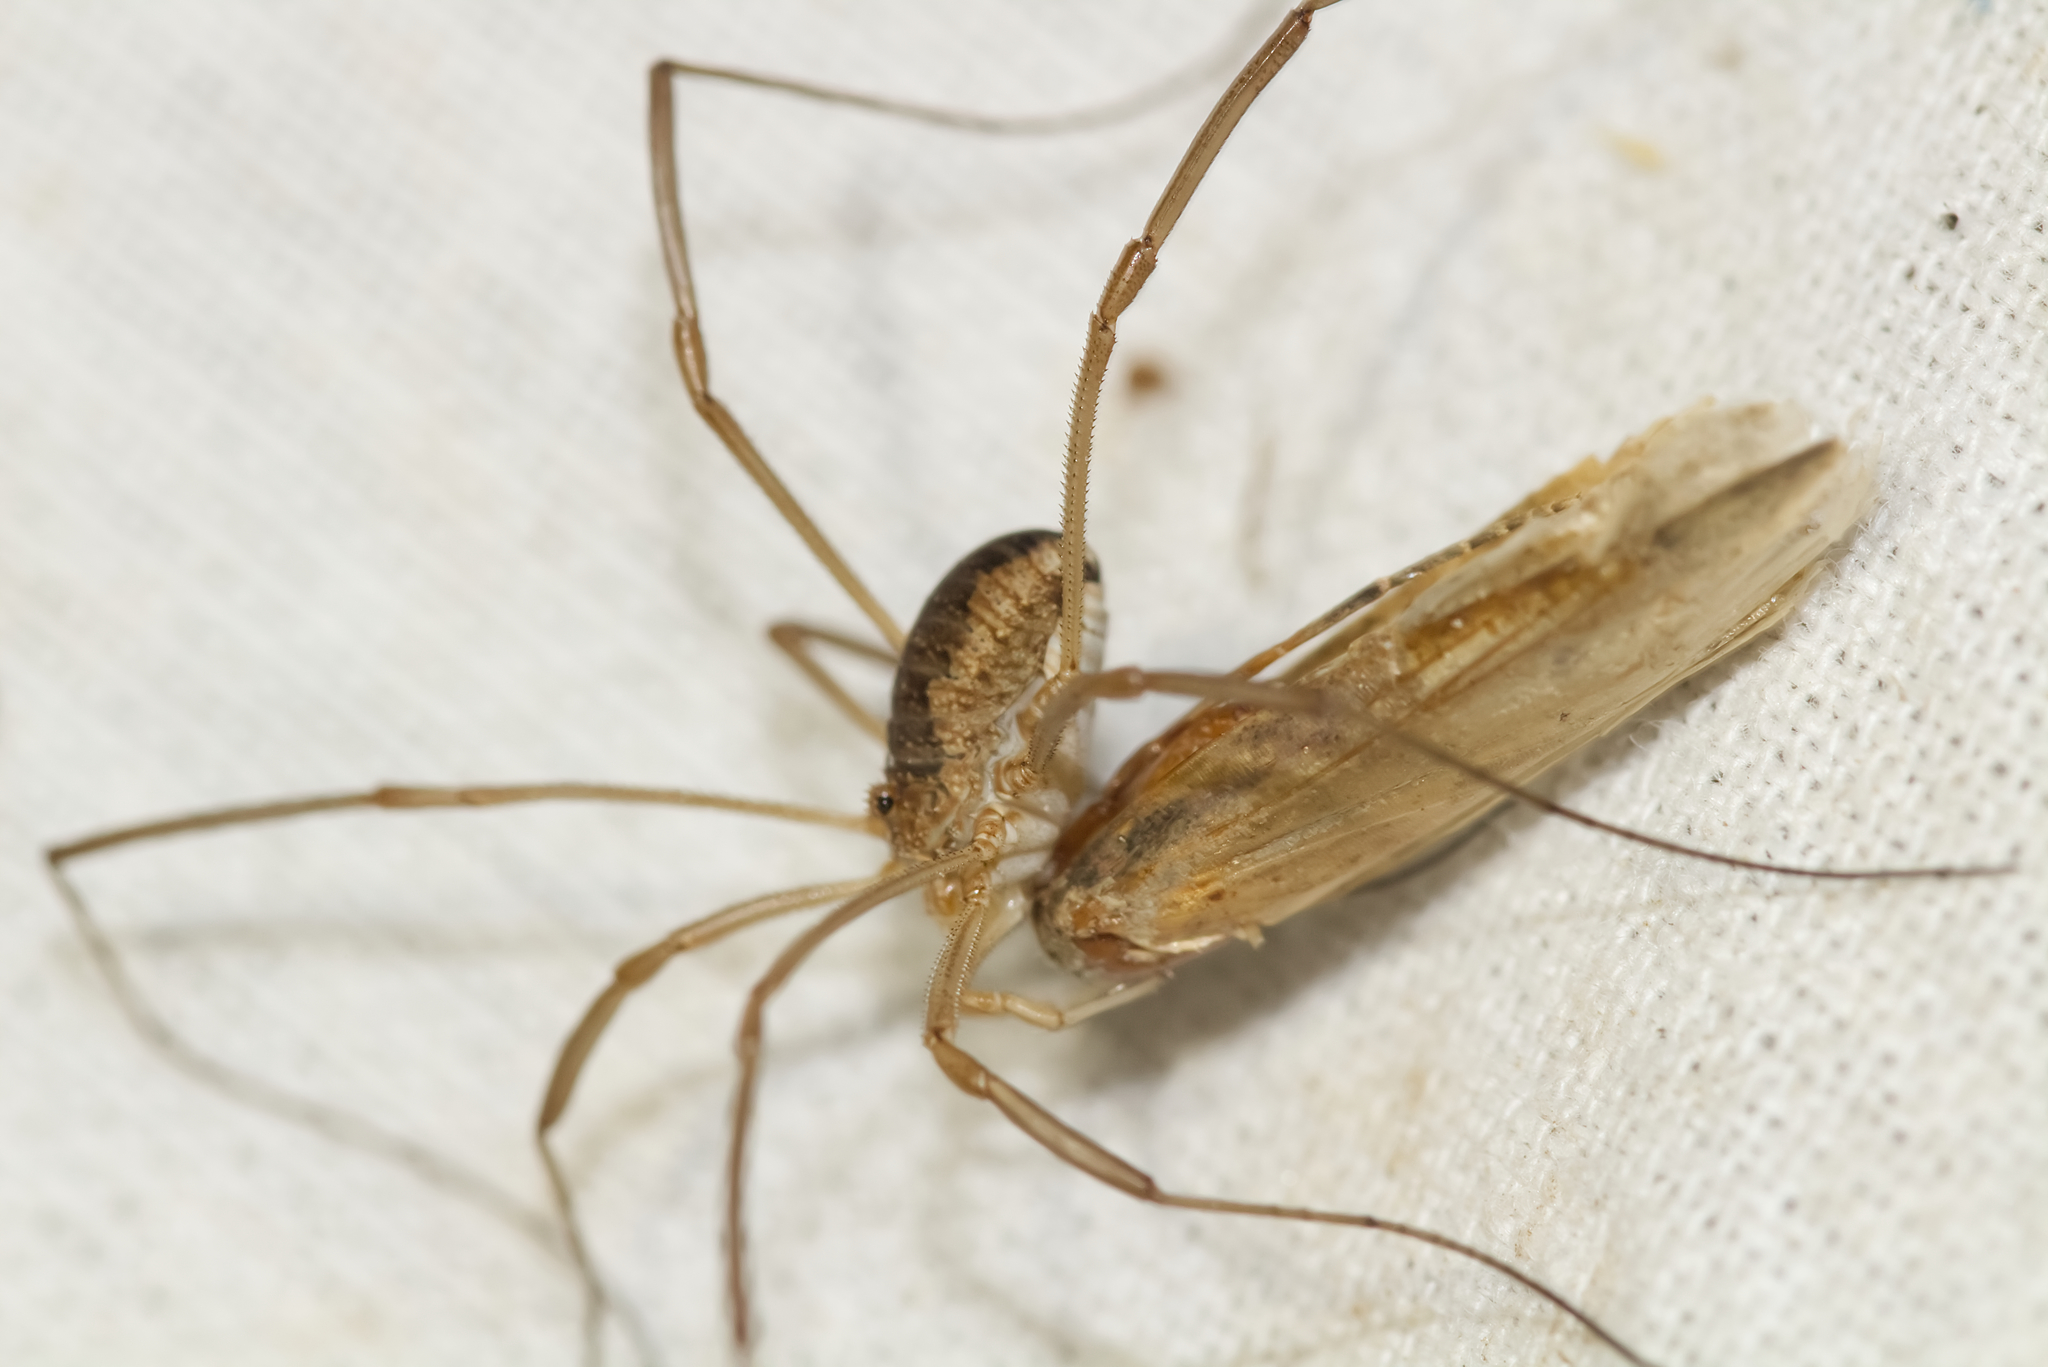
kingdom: Animalia
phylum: Arthropoda
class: Arachnida
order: Opiliones
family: Phalangiidae
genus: Phalangium
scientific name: Phalangium opilio
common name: Daddy longleg
